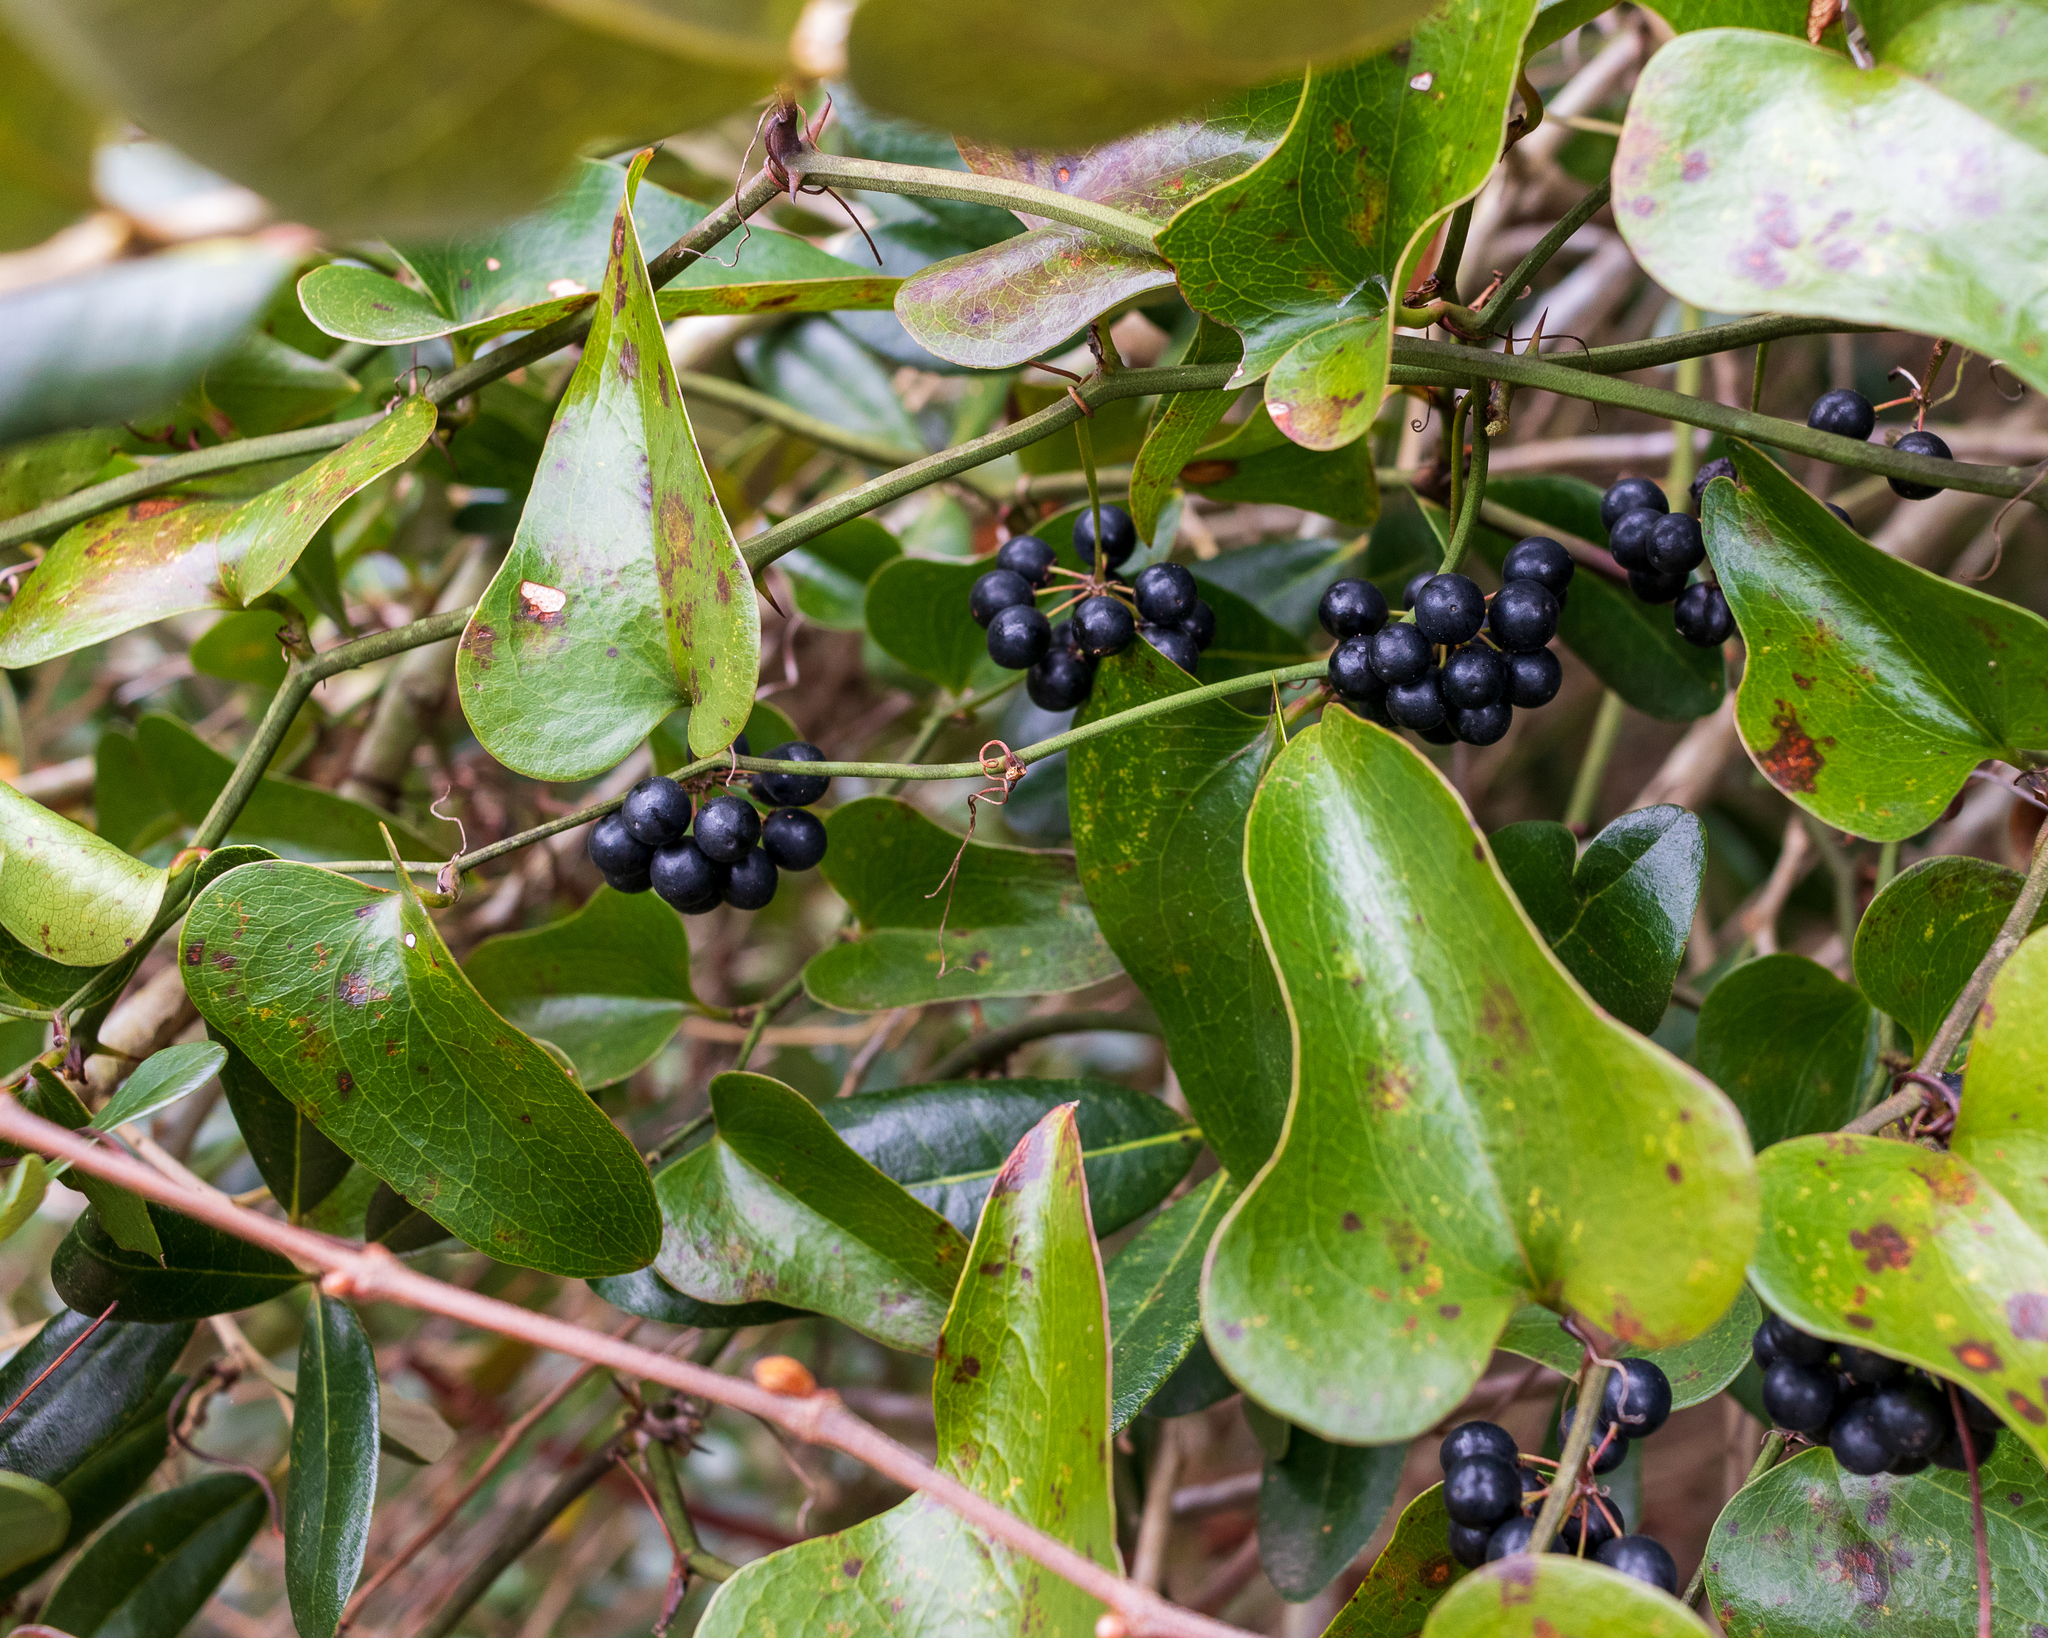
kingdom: Plantae
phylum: Tracheophyta
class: Liliopsida
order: Liliales
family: Smilacaceae
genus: Smilax
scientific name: Smilax bona-nox
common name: Catbrier
